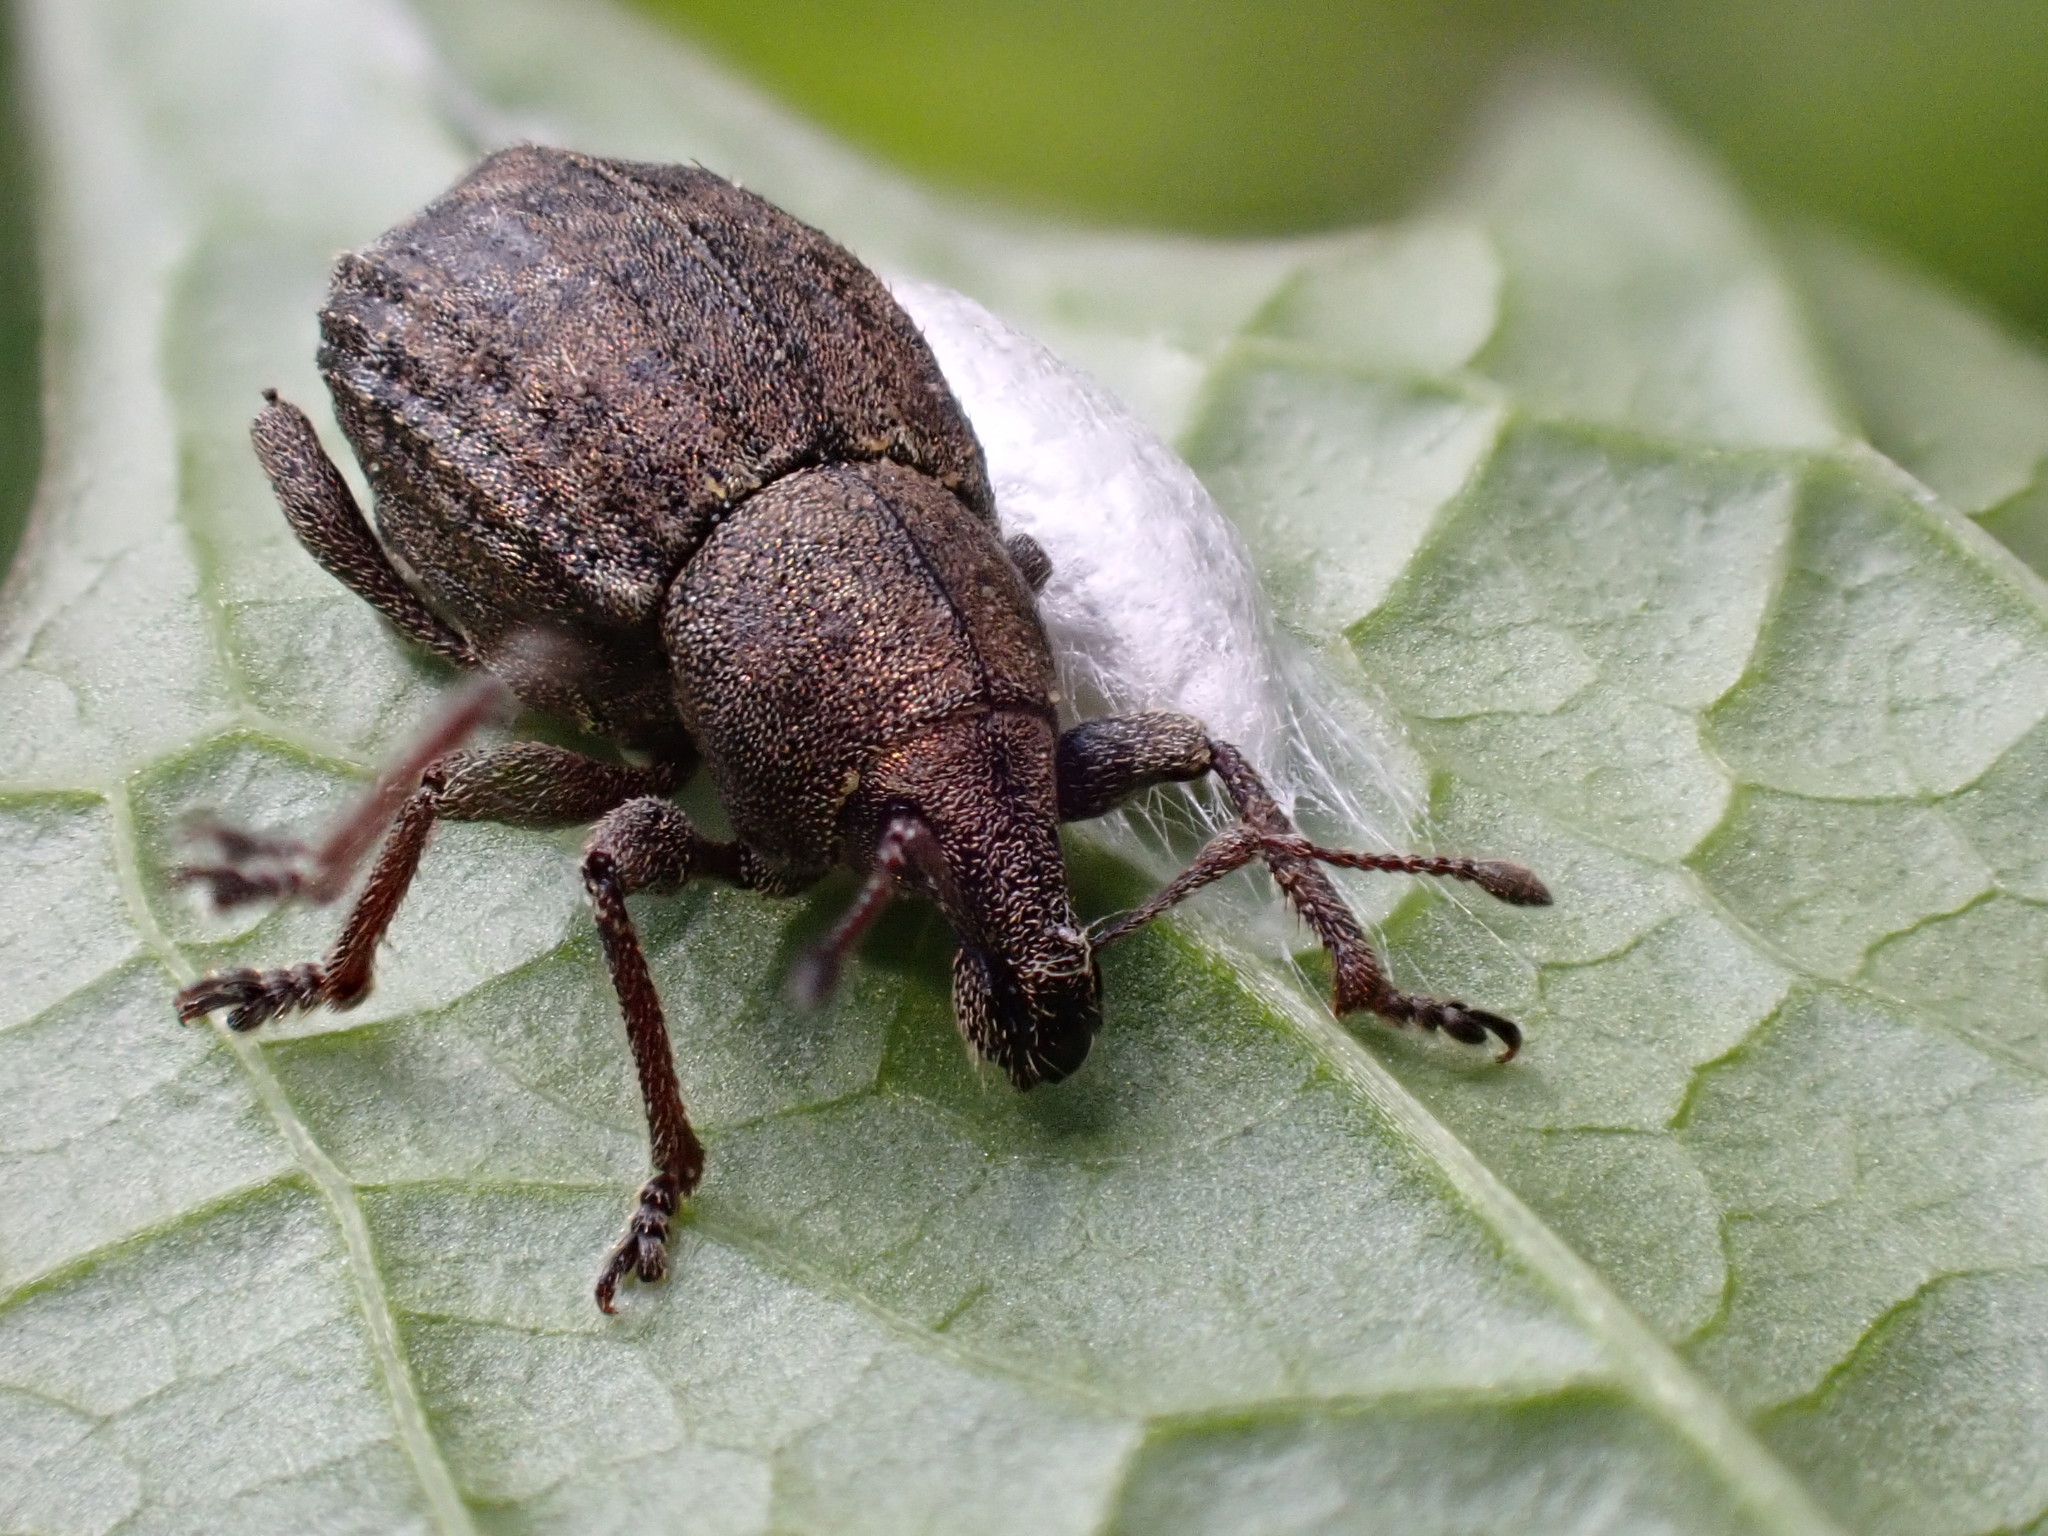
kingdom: Animalia
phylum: Arthropoda
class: Insecta
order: Coleoptera
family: Curculionidae
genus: Tropiphorus
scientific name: Tropiphorus elevatus
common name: Weevil
